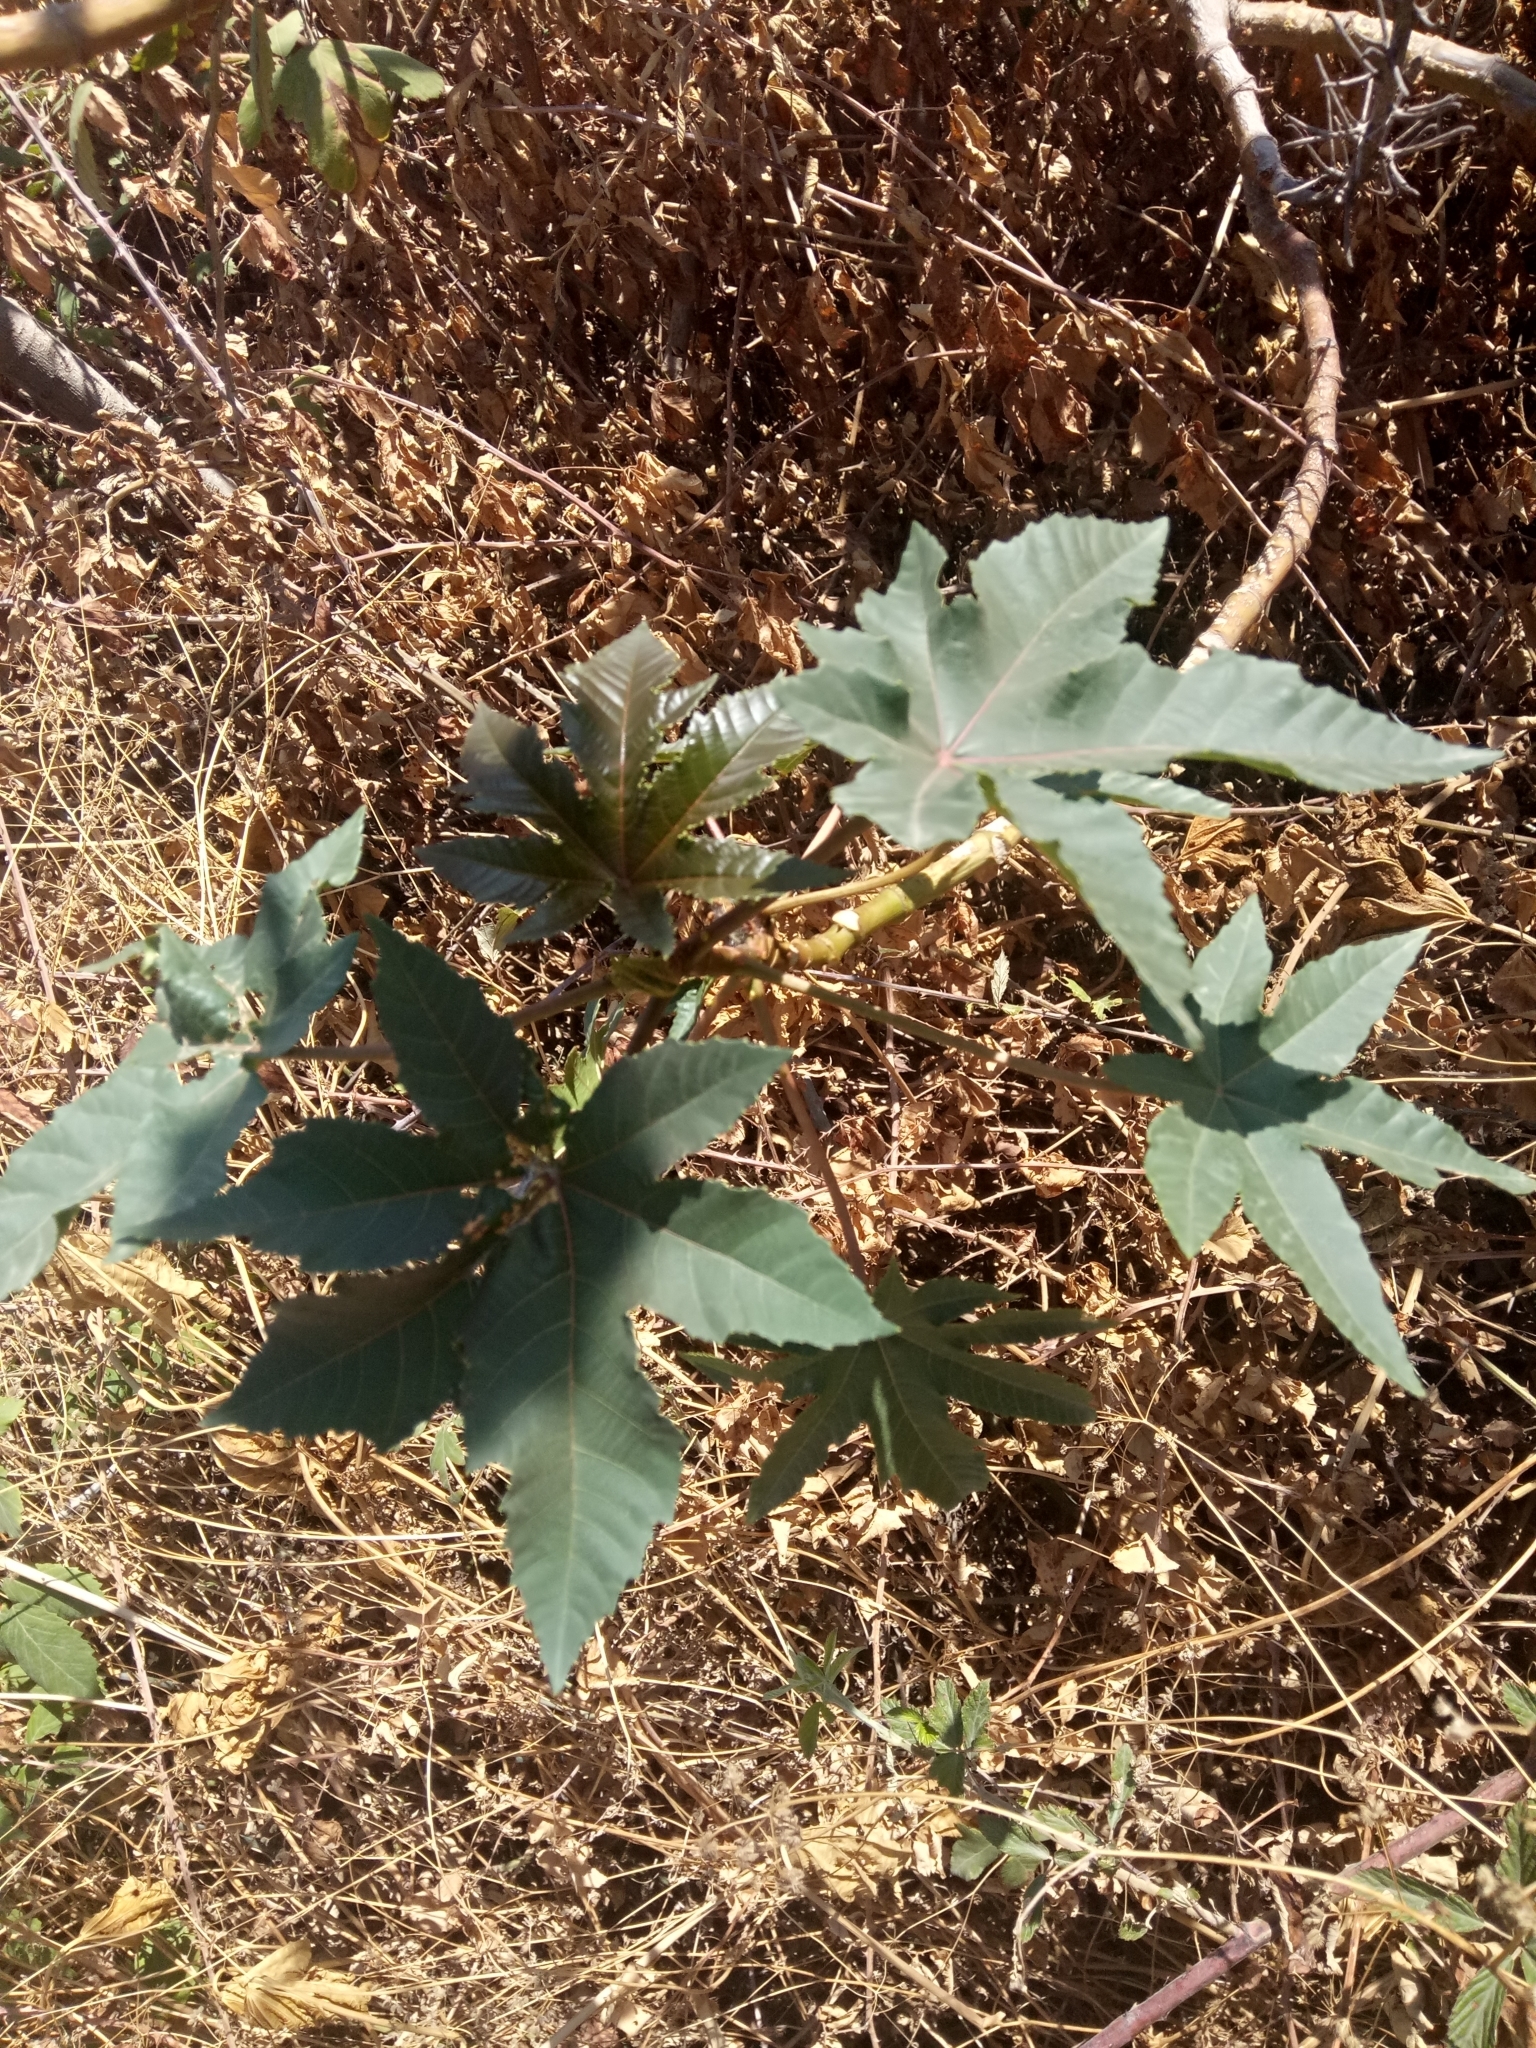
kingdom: Plantae
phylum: Tracheophyta
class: Magnoliopsida
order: Malpighiales
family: Euphorbiaceae
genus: Ricinus
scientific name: Ricinus communis
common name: Castor-oil-plant
